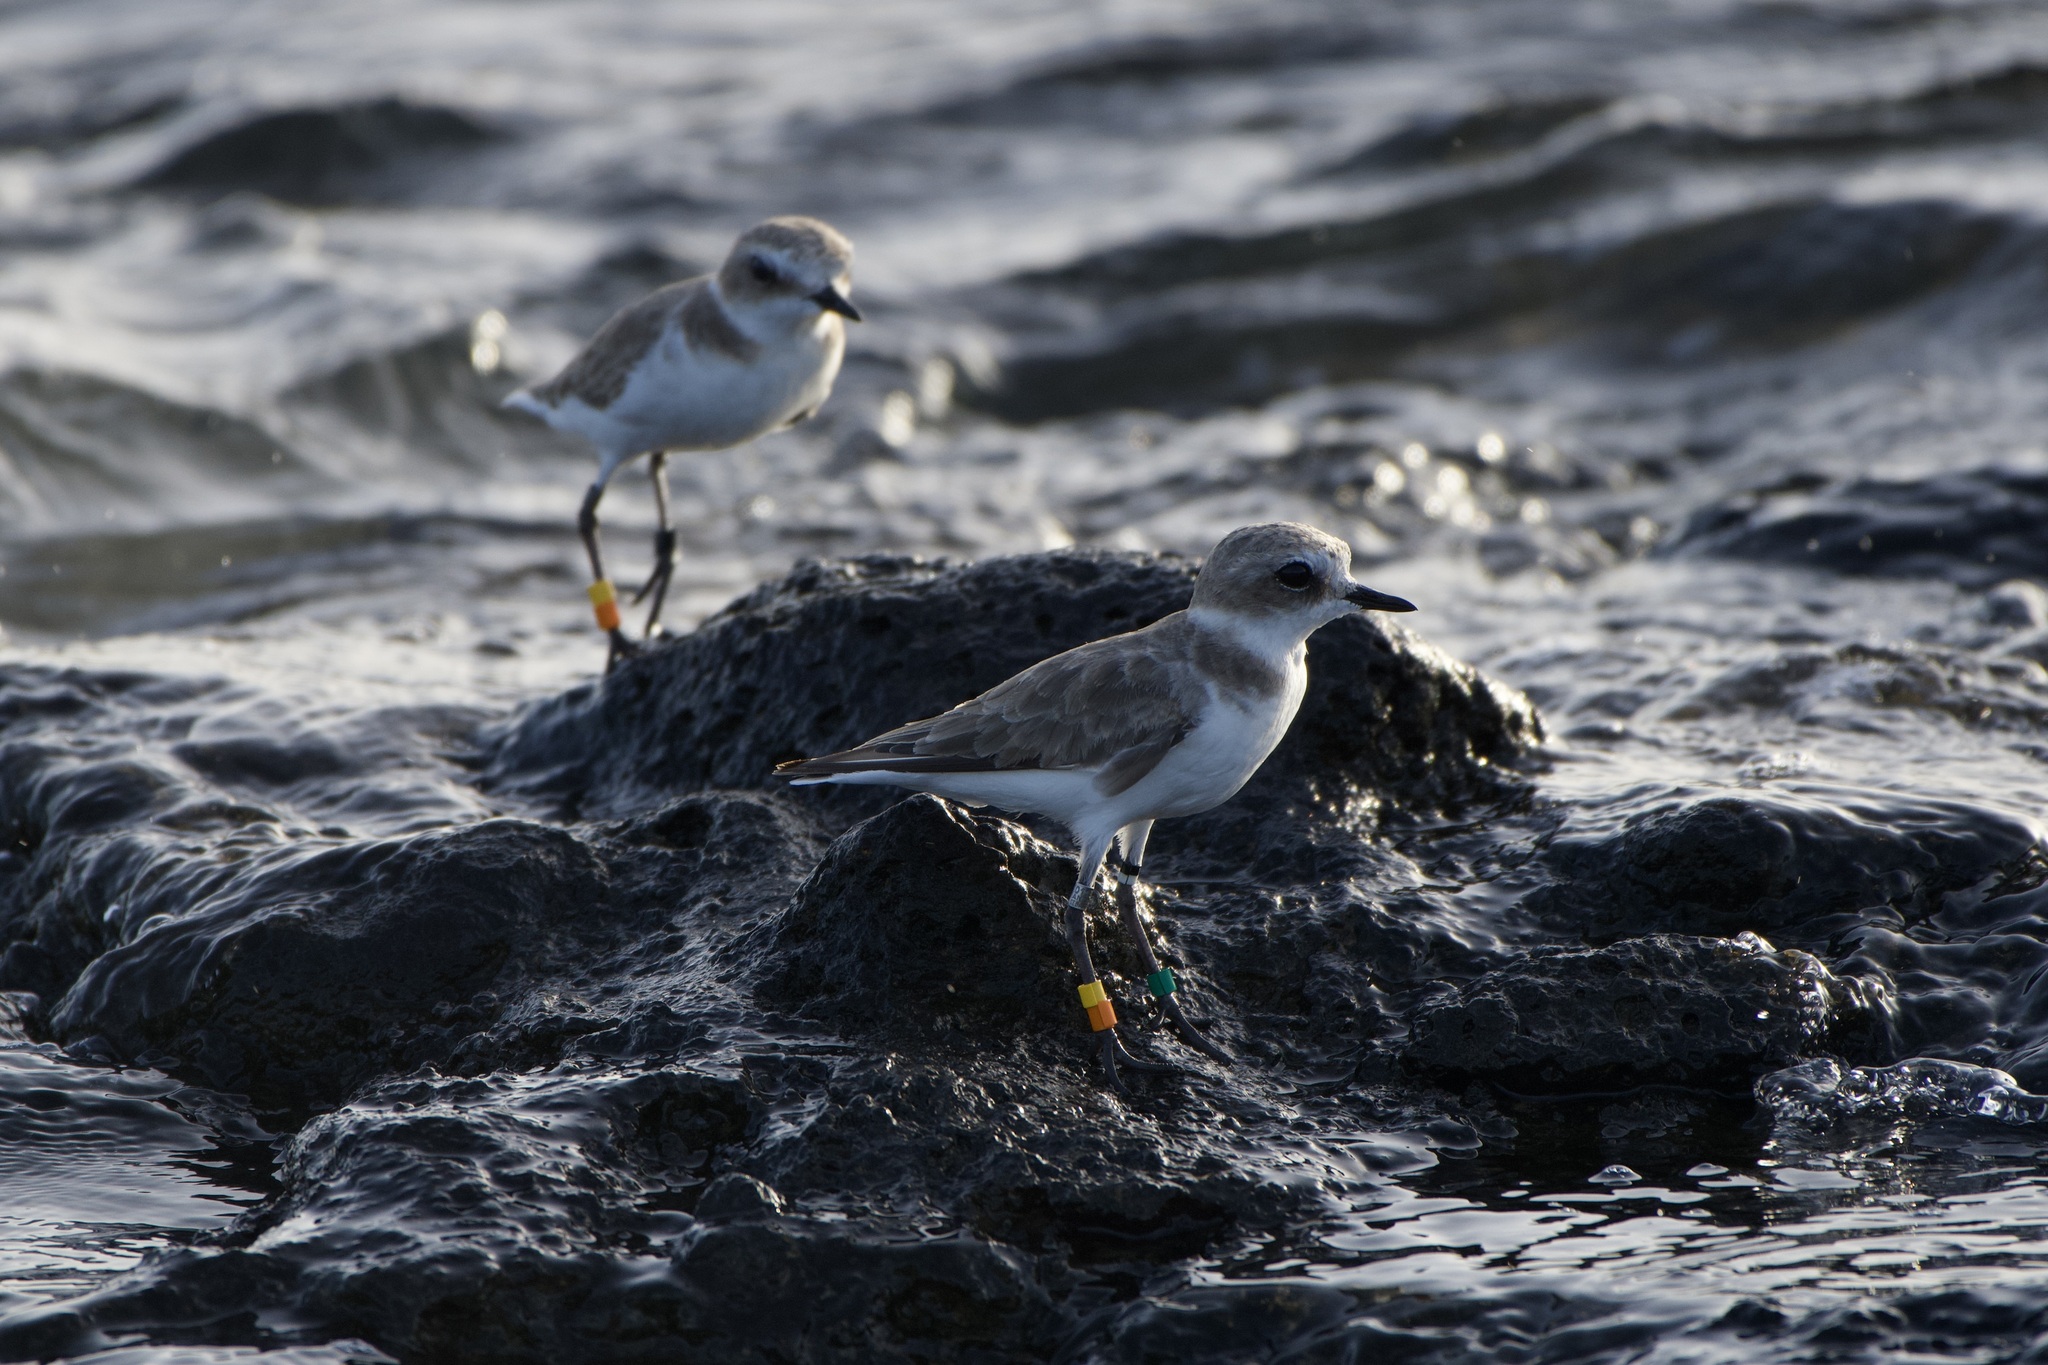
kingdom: Animalia
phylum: Chordata
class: Aves
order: Charadriiformes
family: Charadriidae
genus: Charadrius
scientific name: Charadrius alexandrinus
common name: Kentish plover
